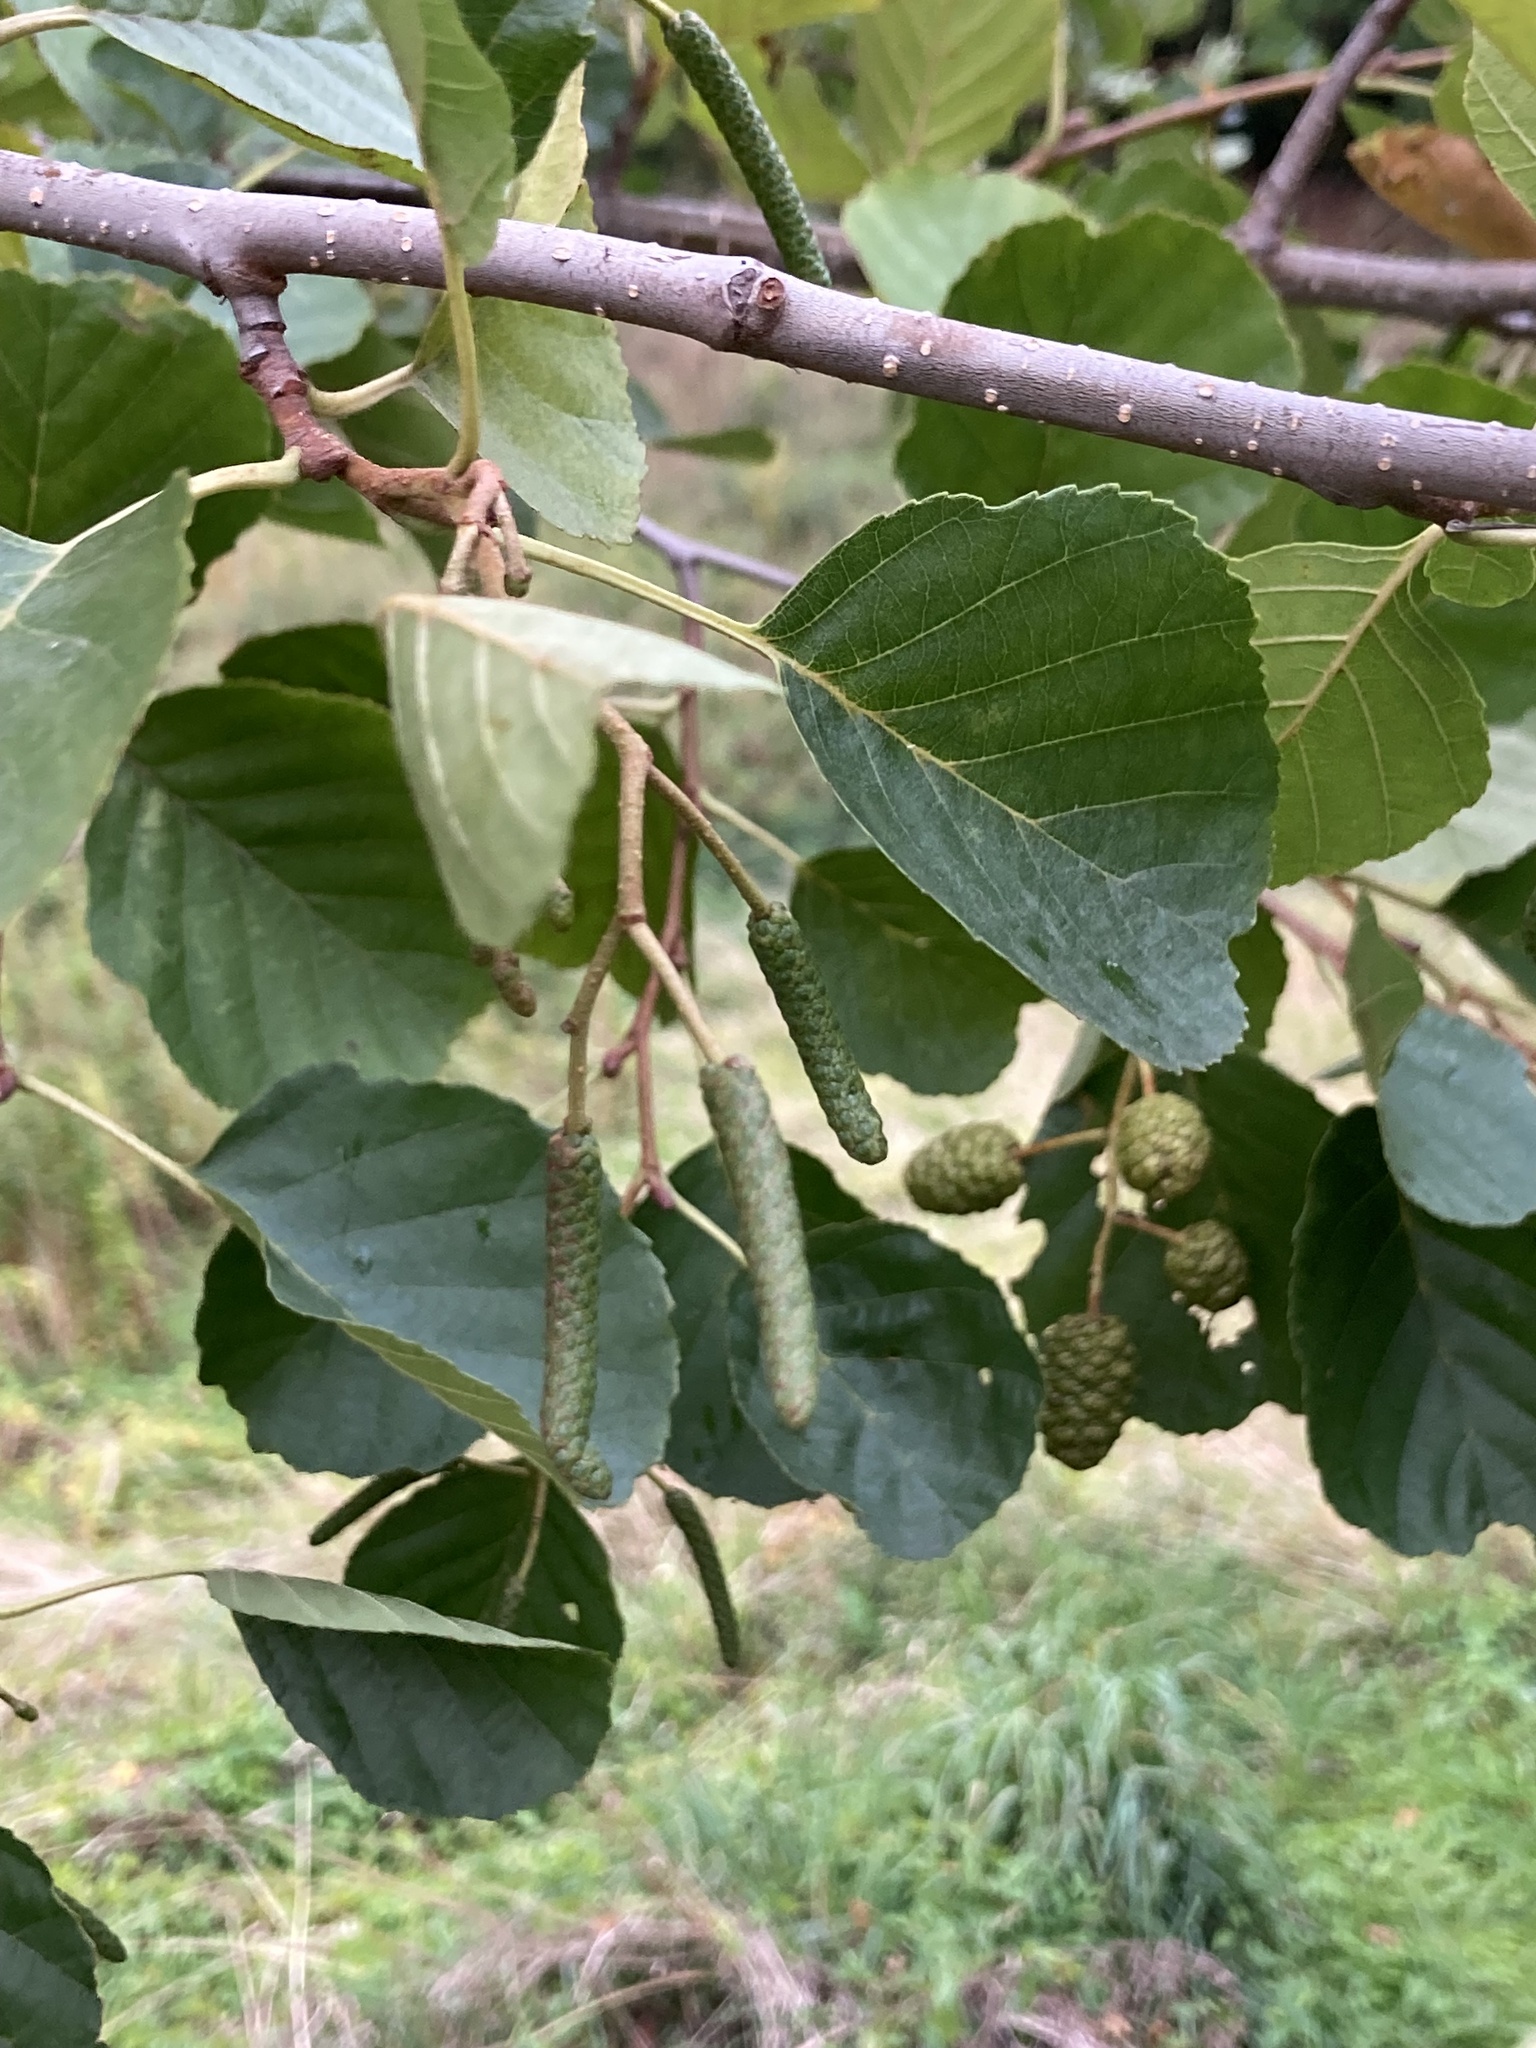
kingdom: Plantae
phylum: Tracheophyta
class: Magnoliopsida
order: Fagales
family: Betulaceae
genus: Alnus
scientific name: Alnus glutinosa
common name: Black alder
